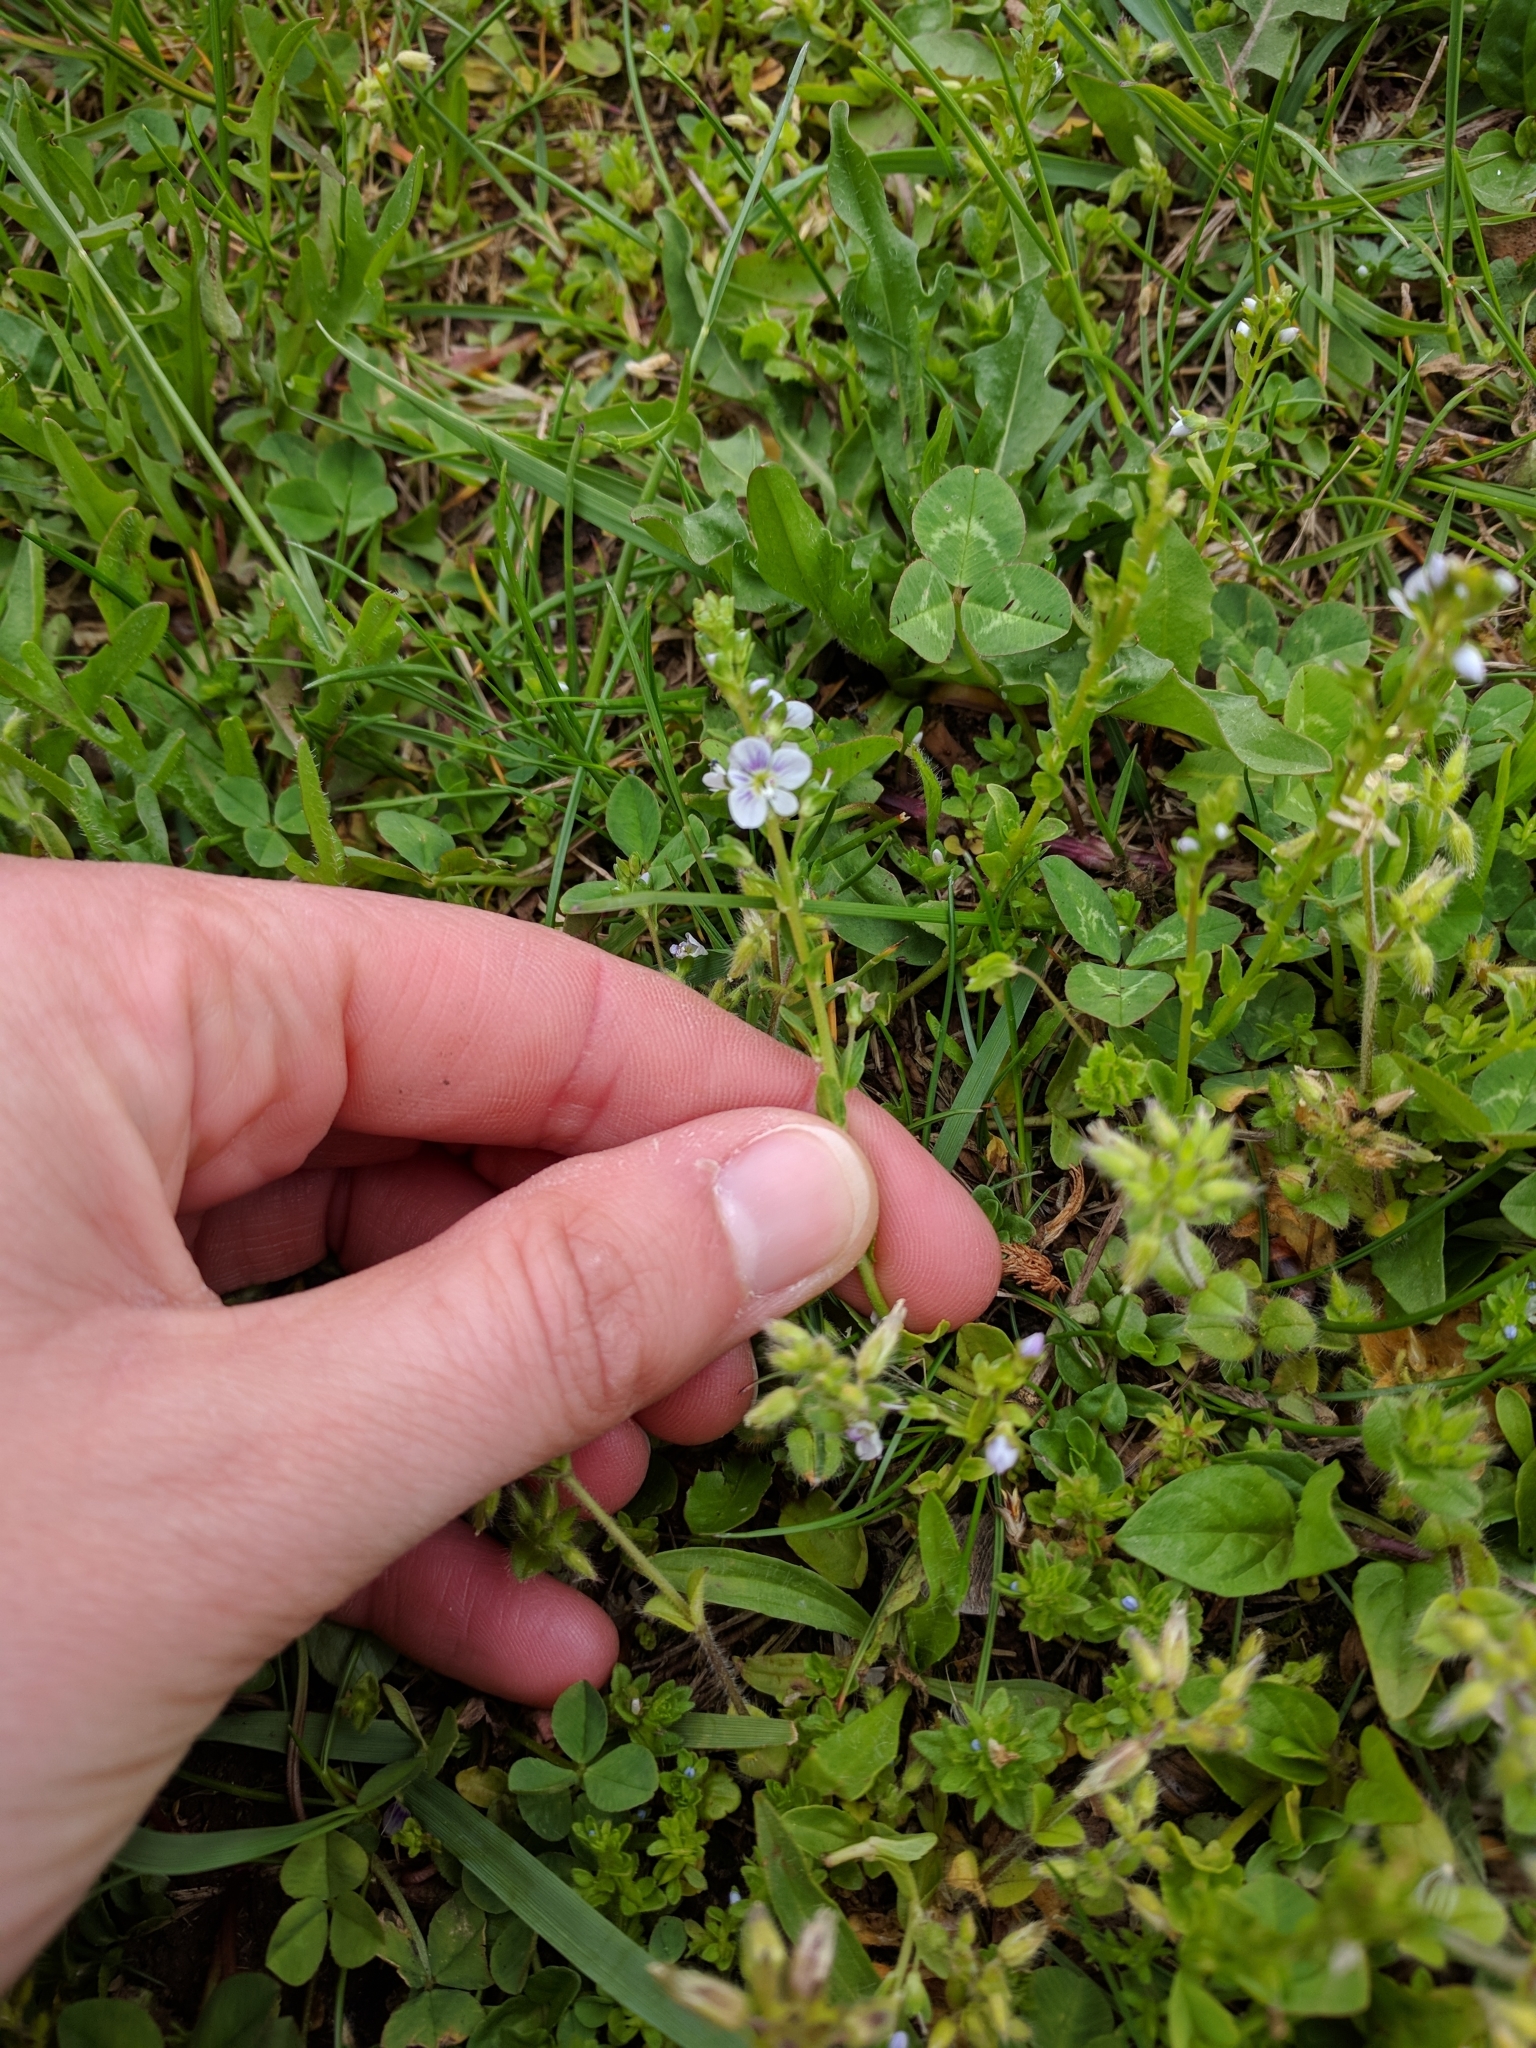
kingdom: Plantae
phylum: Tracheophyta
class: Magnoliopsida
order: Lamiales
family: Plantaginaceae
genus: Veronica
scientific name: Veronica serpyllifolia
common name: Thyme-leaved speedwell
